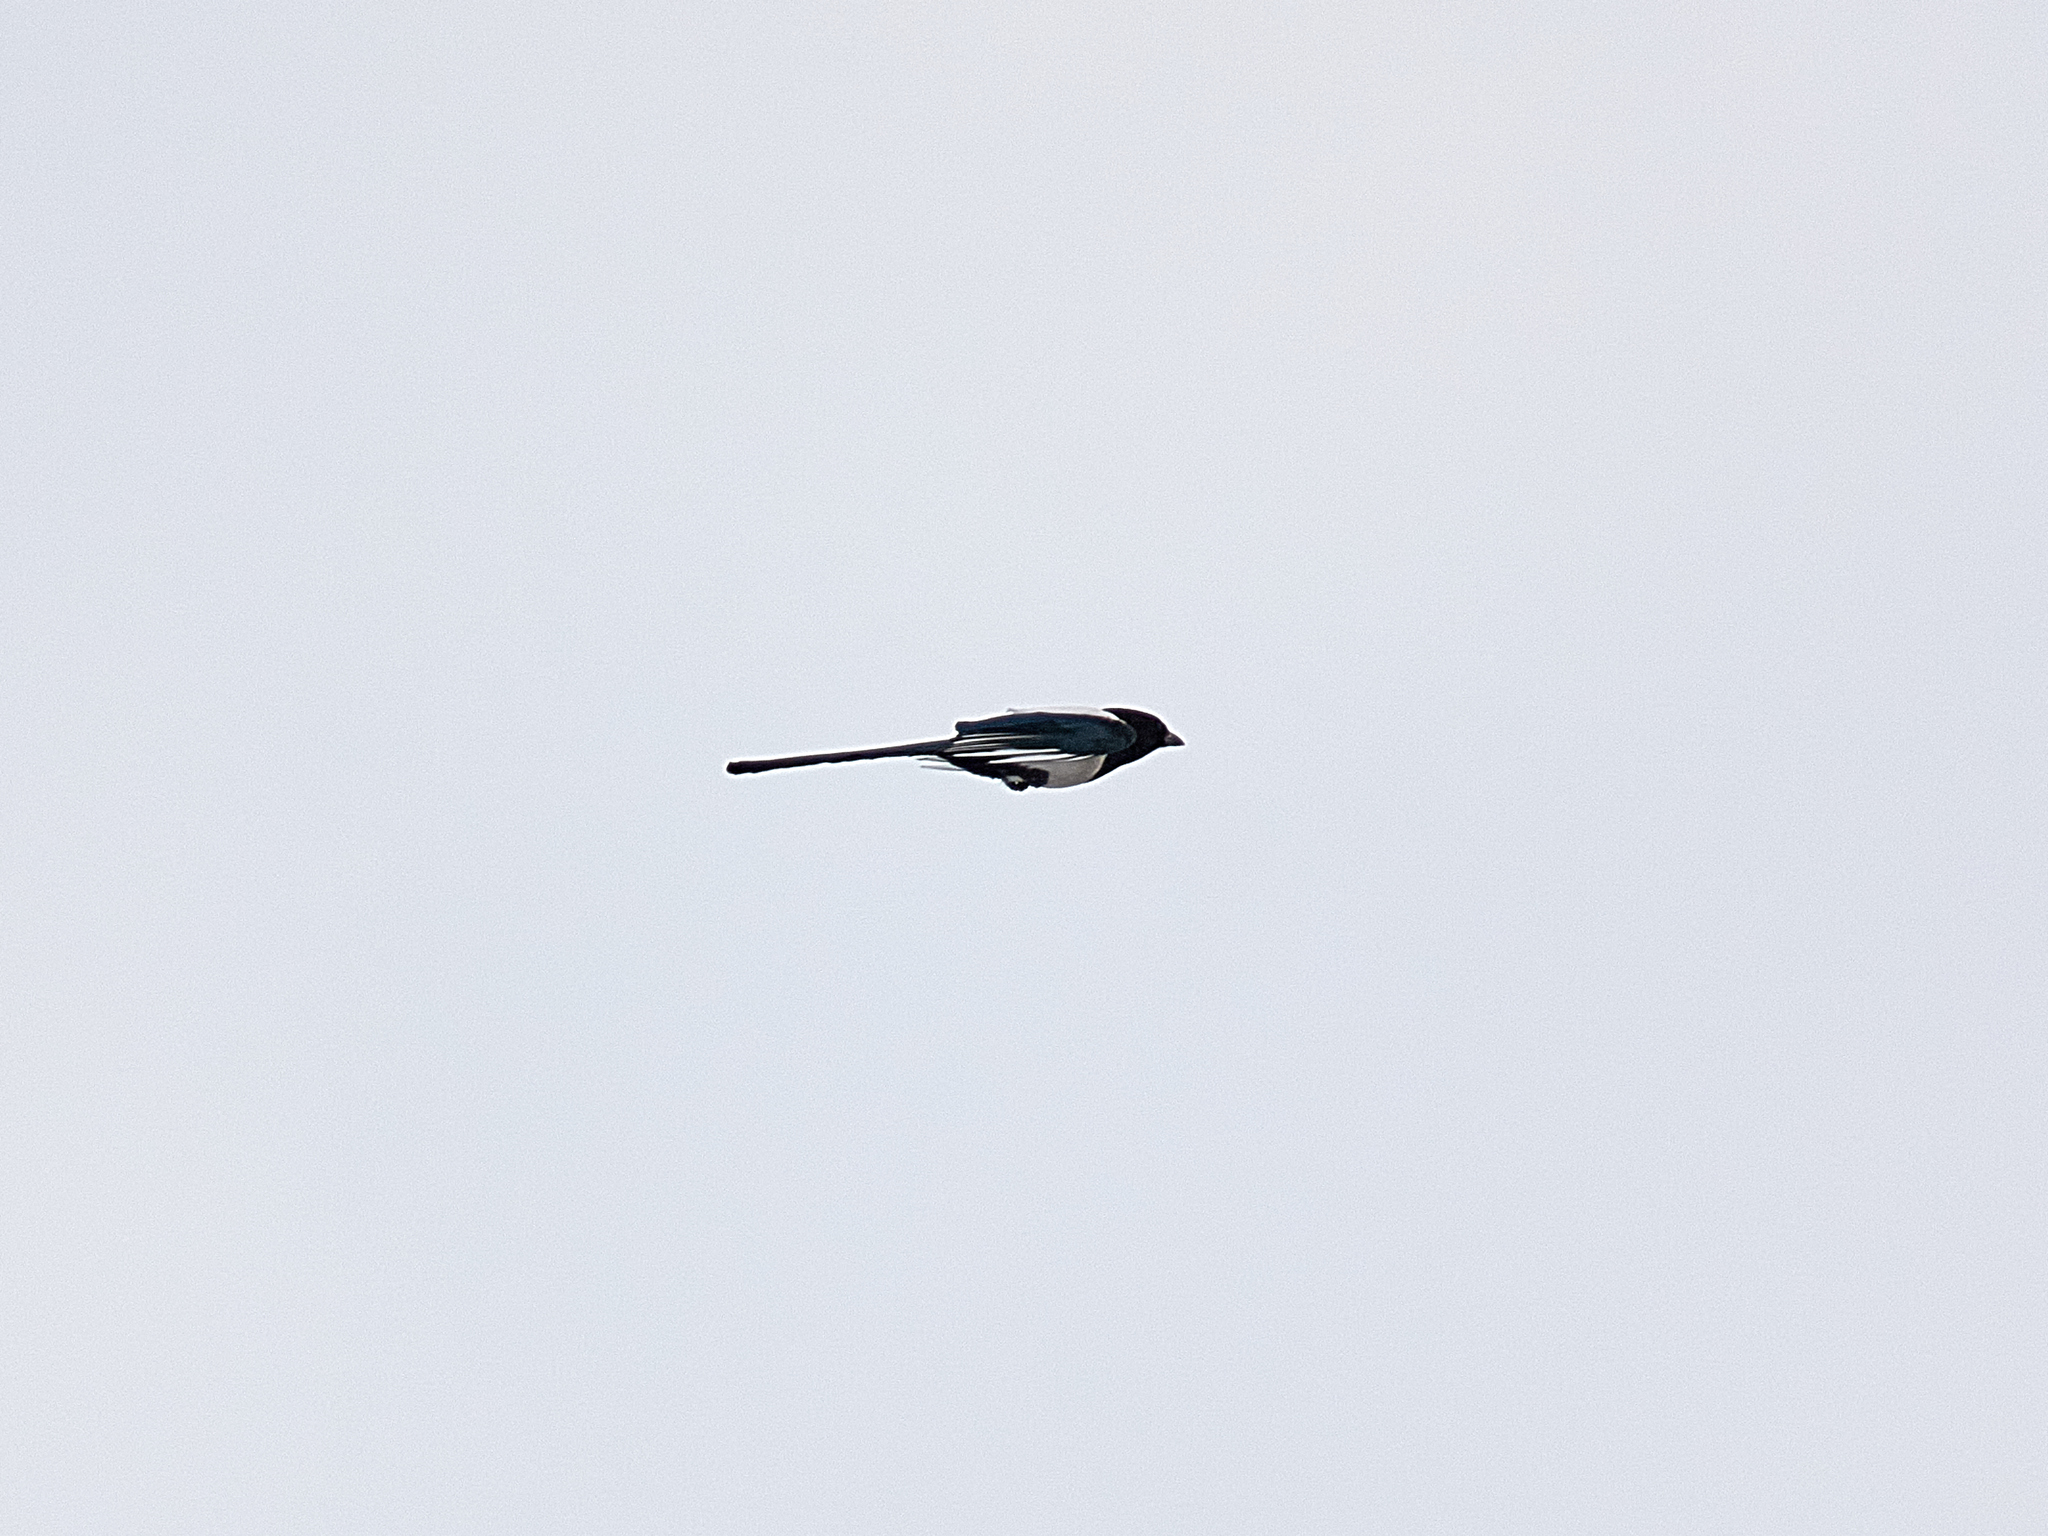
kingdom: Animalia
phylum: Chordata
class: Aves
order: Passeriformes
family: Corvidae
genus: Pica
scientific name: Pica pica
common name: Eurasian magpie
